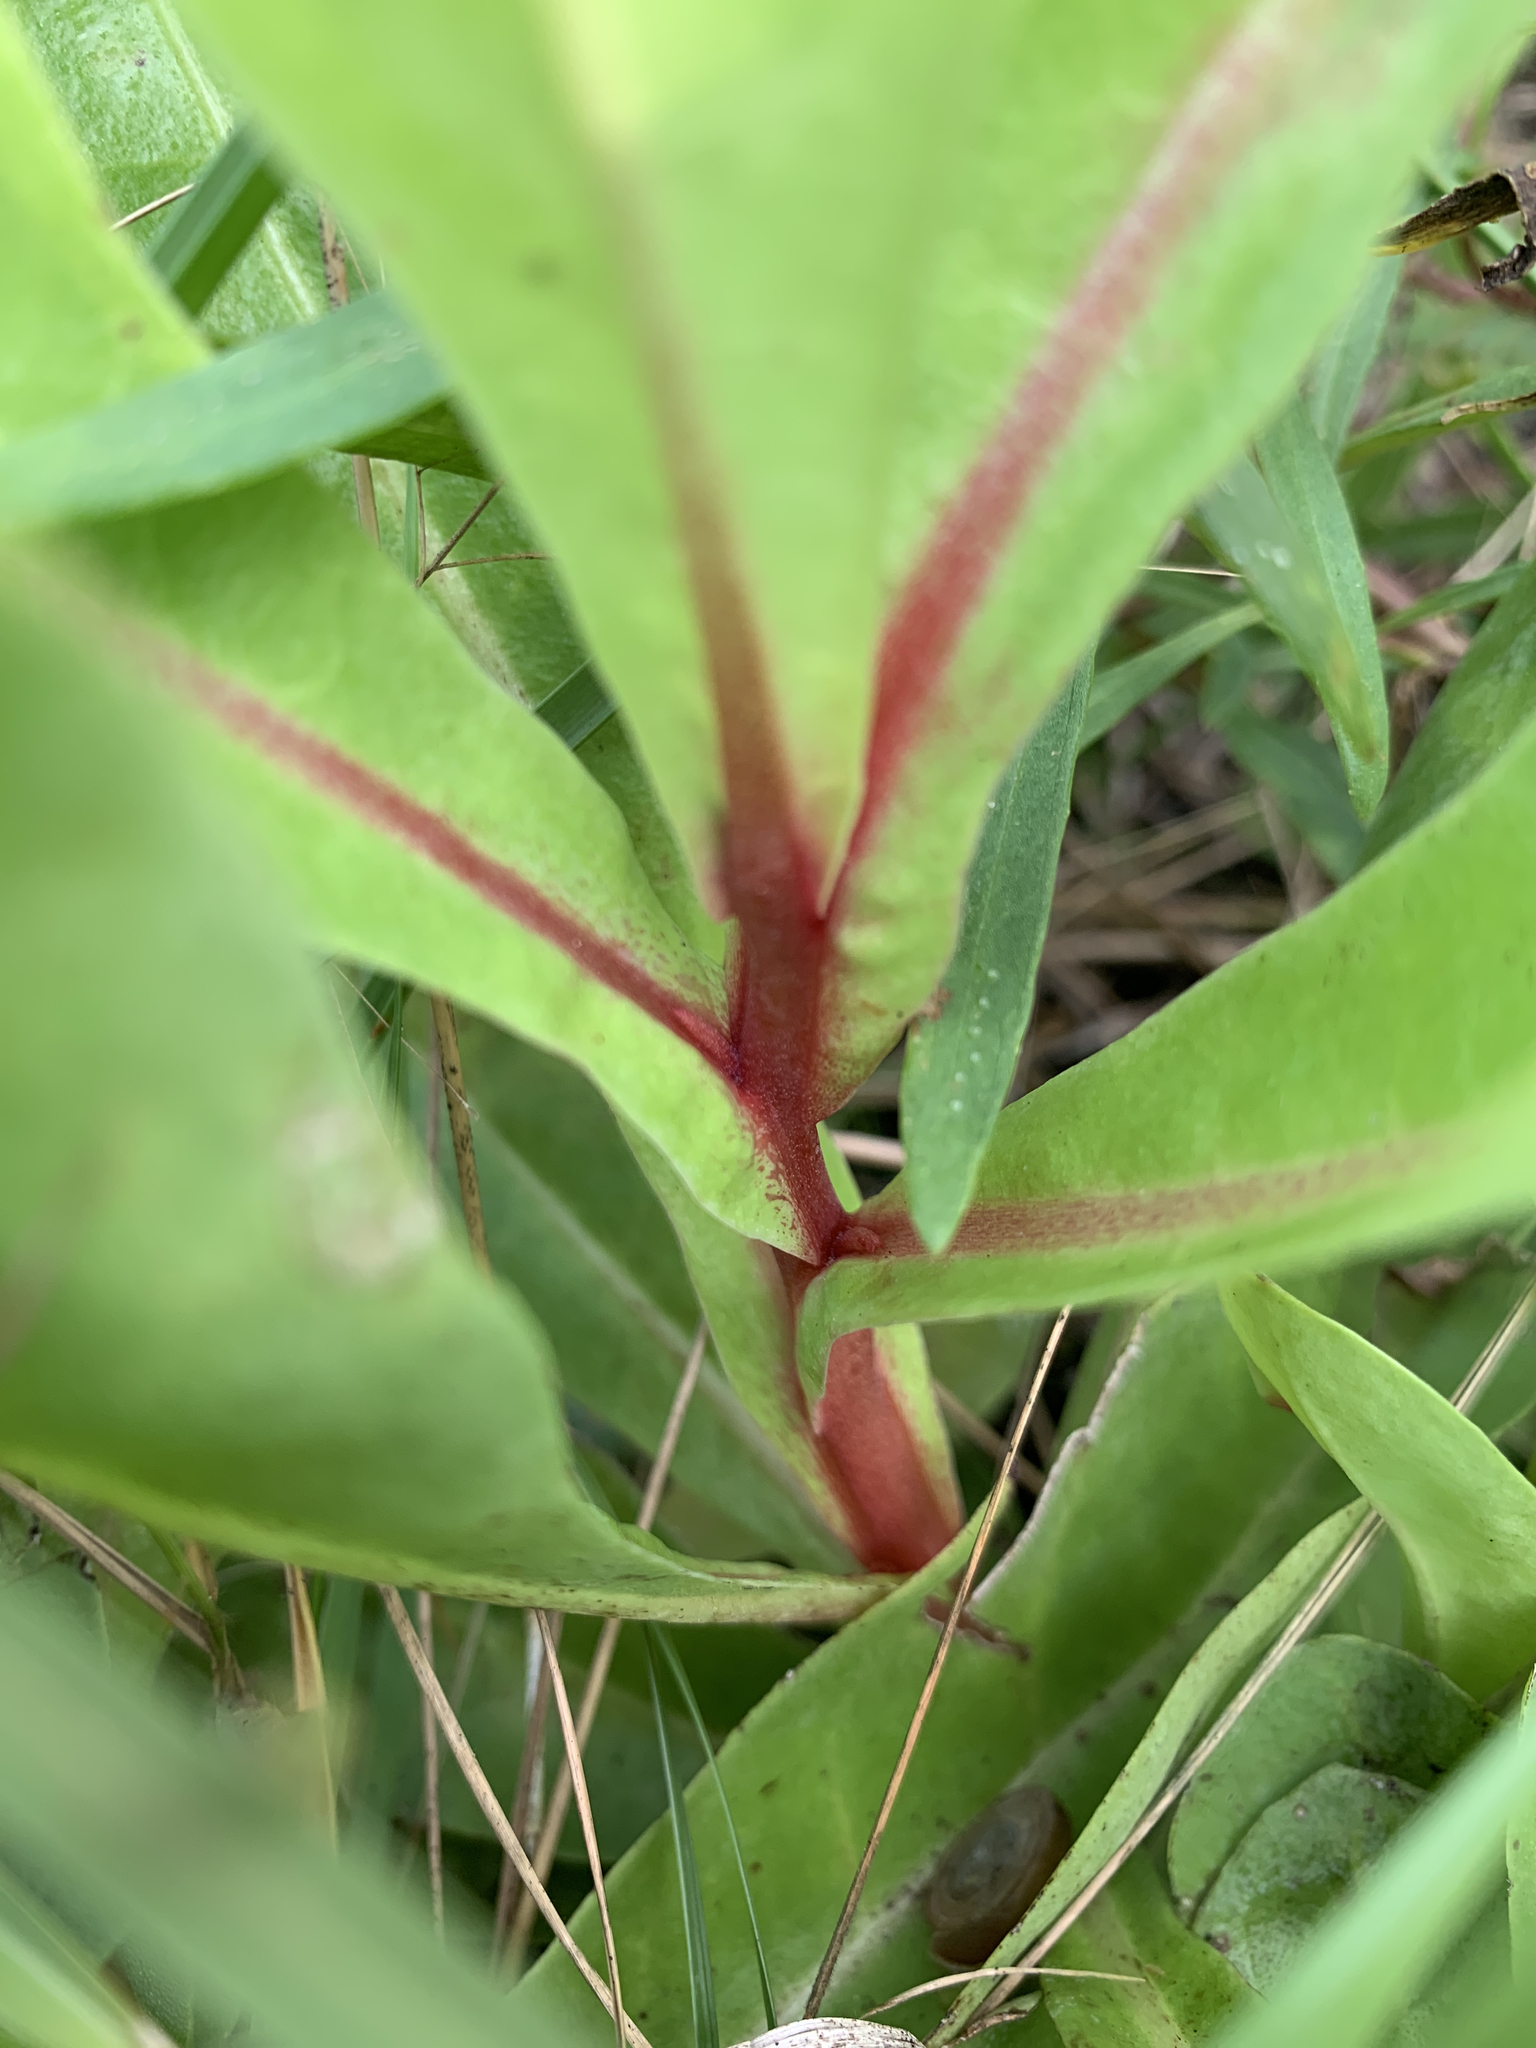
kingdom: Plantae
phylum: Tracheophyta
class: Magnoliopsida
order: Ericales
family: Primulaceae
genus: Samolus
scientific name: Samolus ebracteatus
